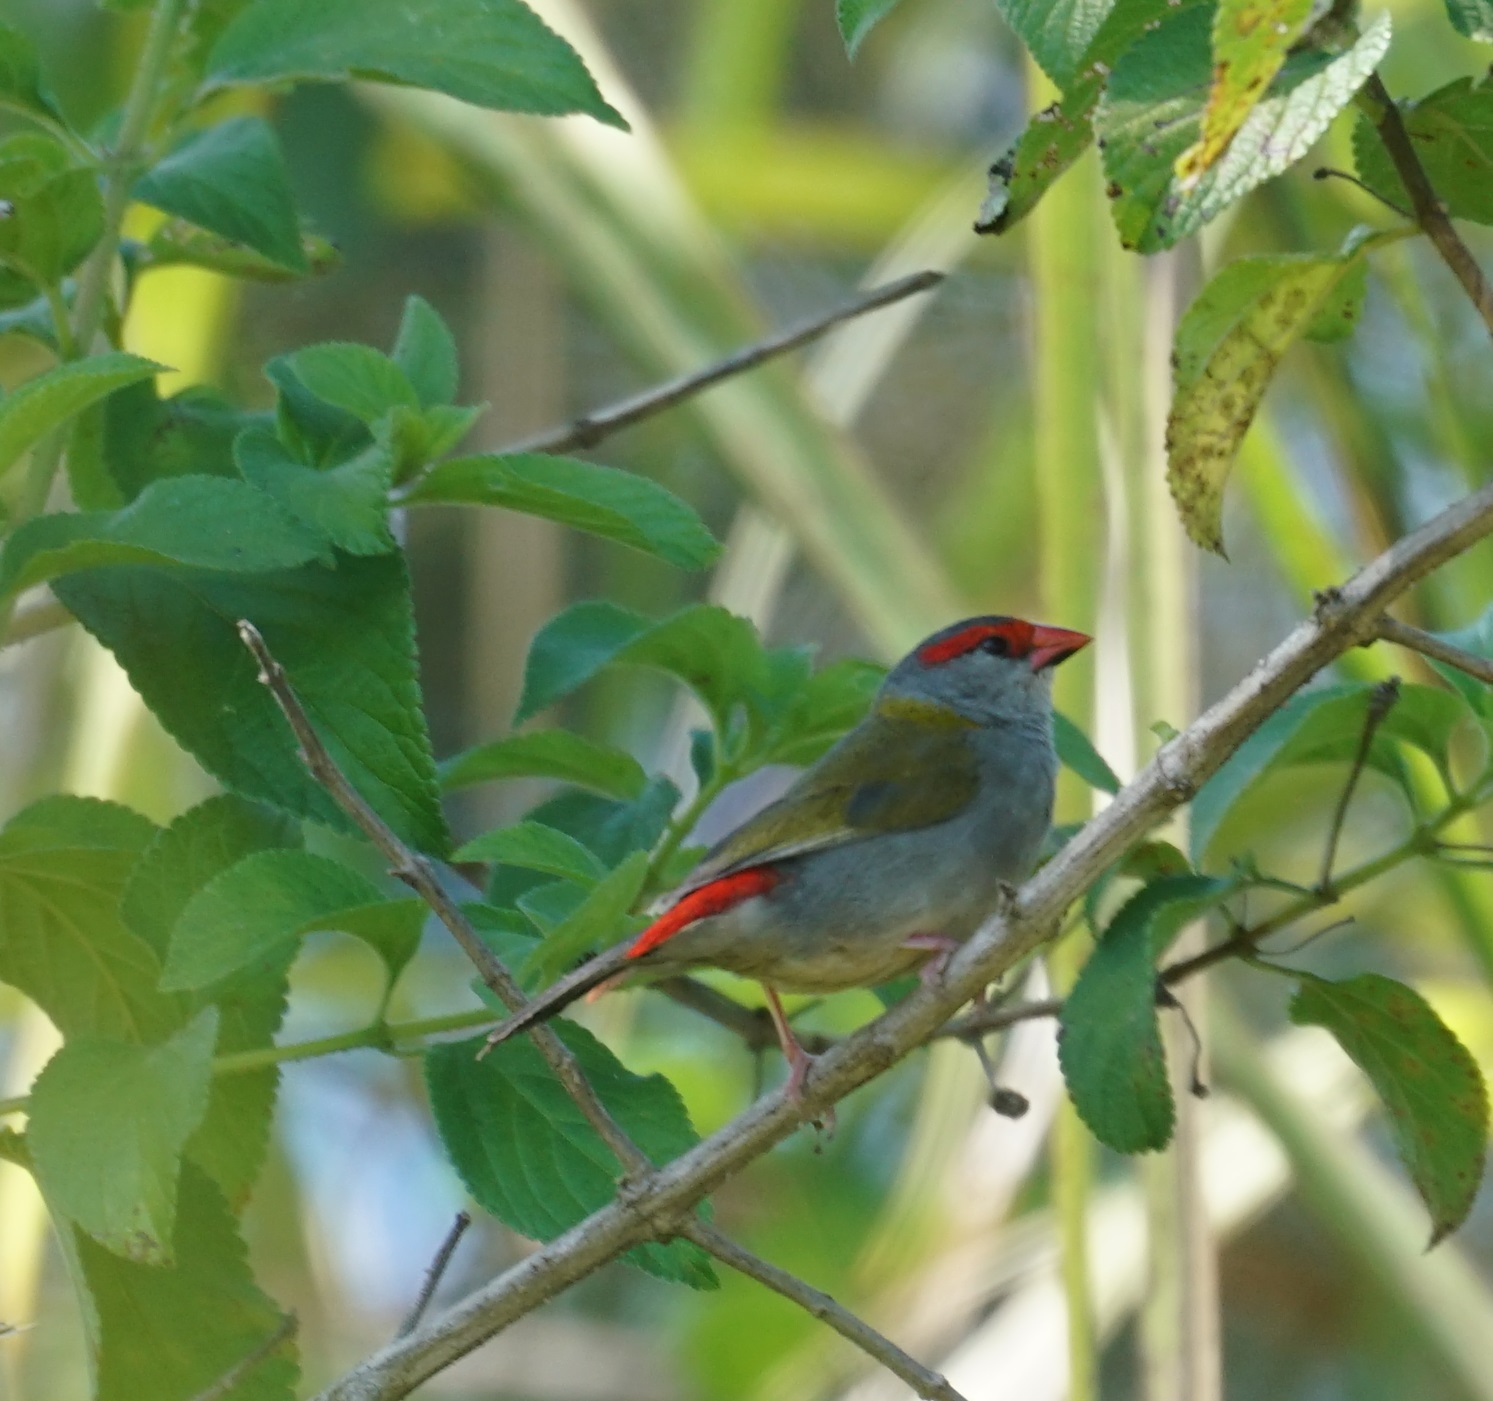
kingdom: Animalia
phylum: Chordata
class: Aves
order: Passeriformes
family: Estrildidae
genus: Neochmia
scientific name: Neochmia temporalis
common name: Red-browed finch
